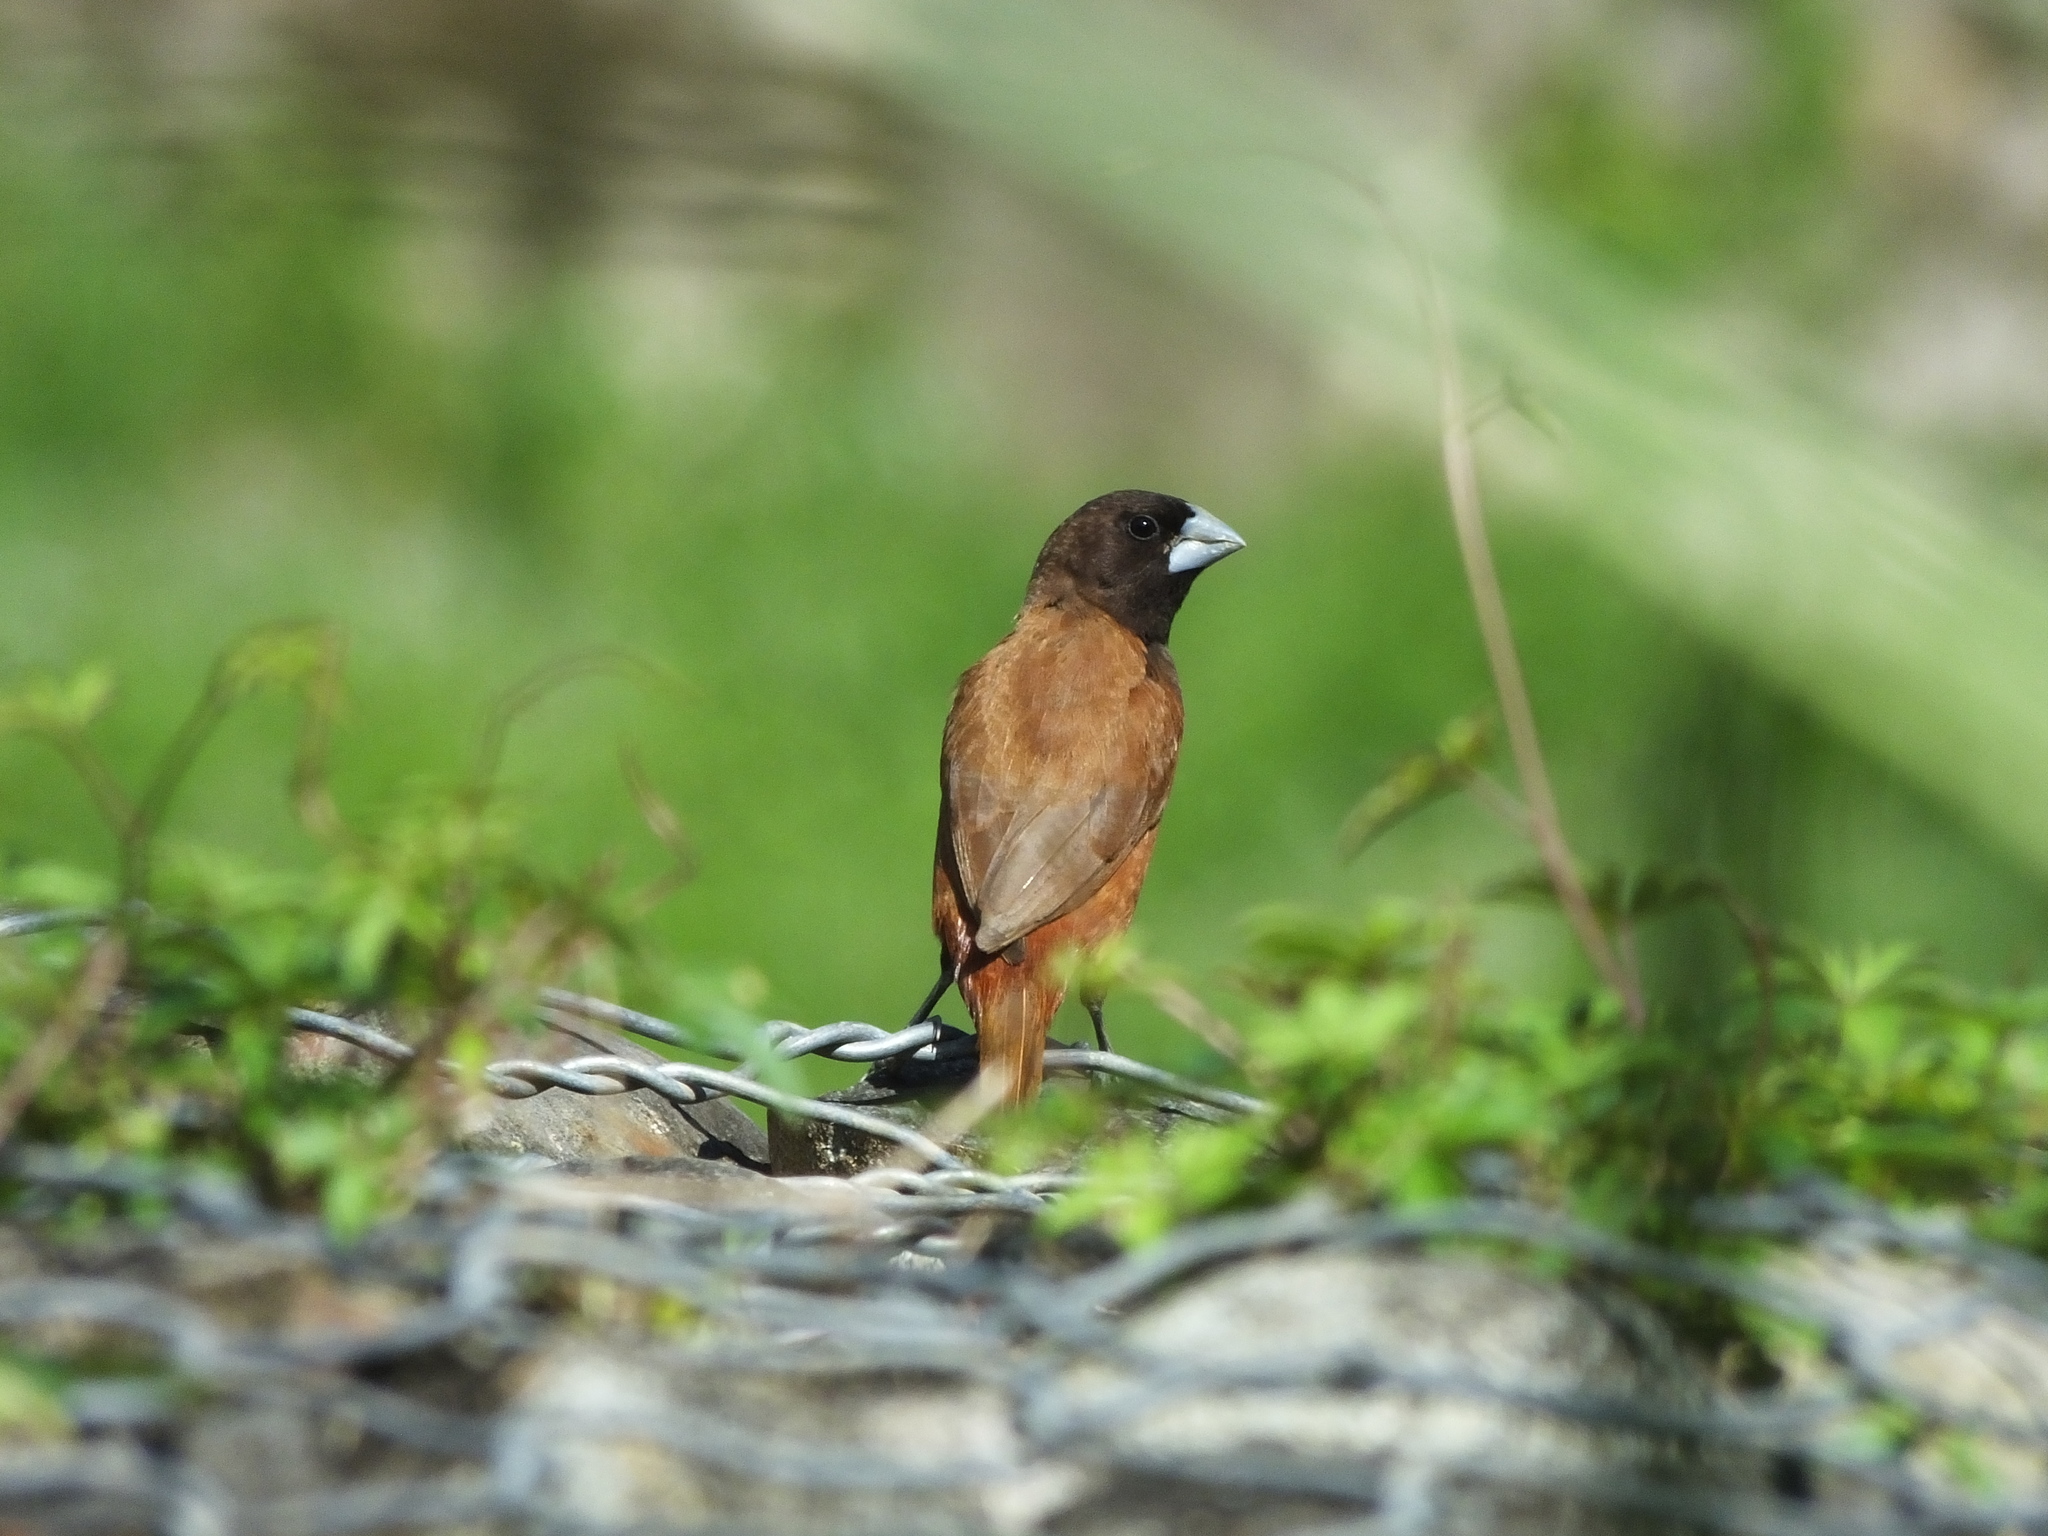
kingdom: Animalia
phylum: Chordata
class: Aves
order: Passeriformes
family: Estrildidae
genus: Lonchura
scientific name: Lonchura atricapilla
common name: Chestnut munia
